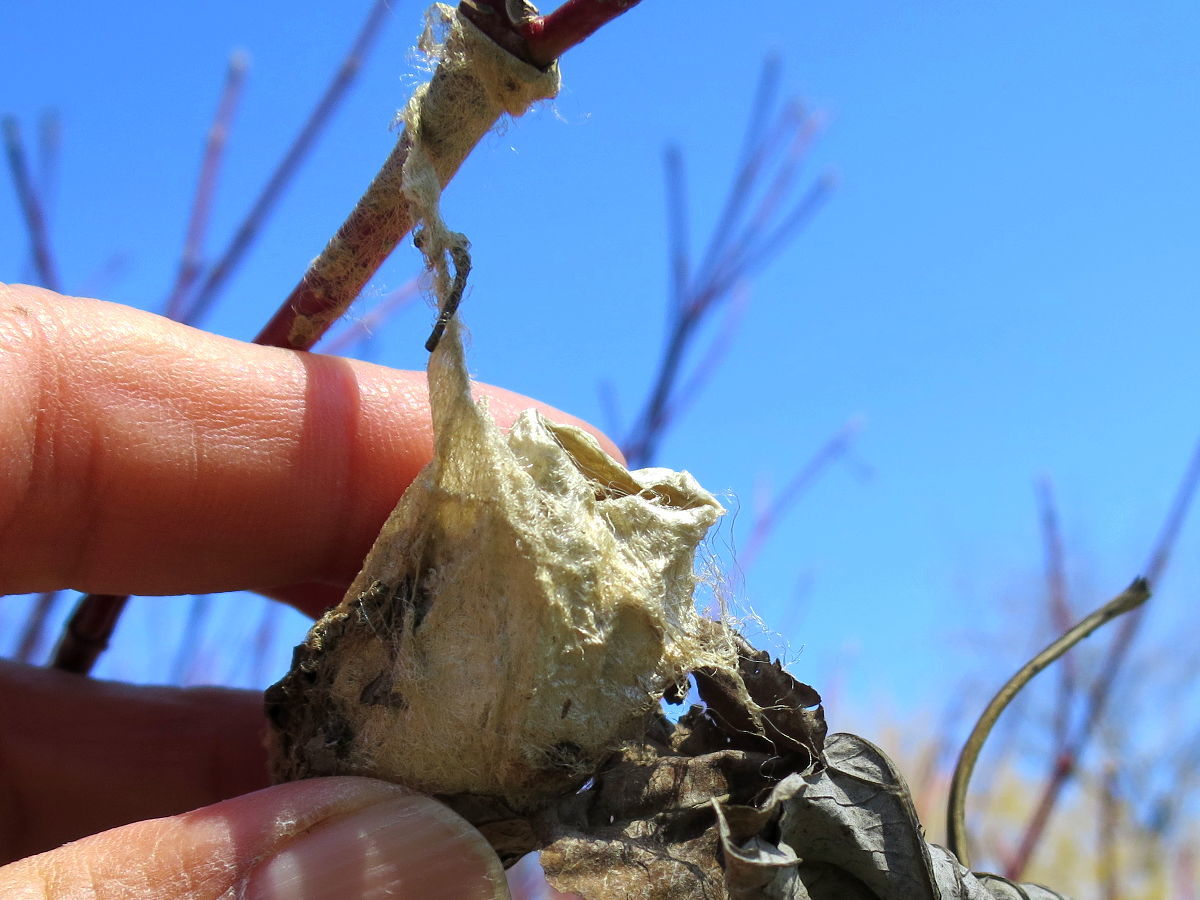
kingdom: Animalia
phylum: Arthropoda
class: Insecta
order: Lepidoptera
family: Saturniidae
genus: Antheraea
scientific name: Antheraea polyphemus
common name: Polyphemus moth
